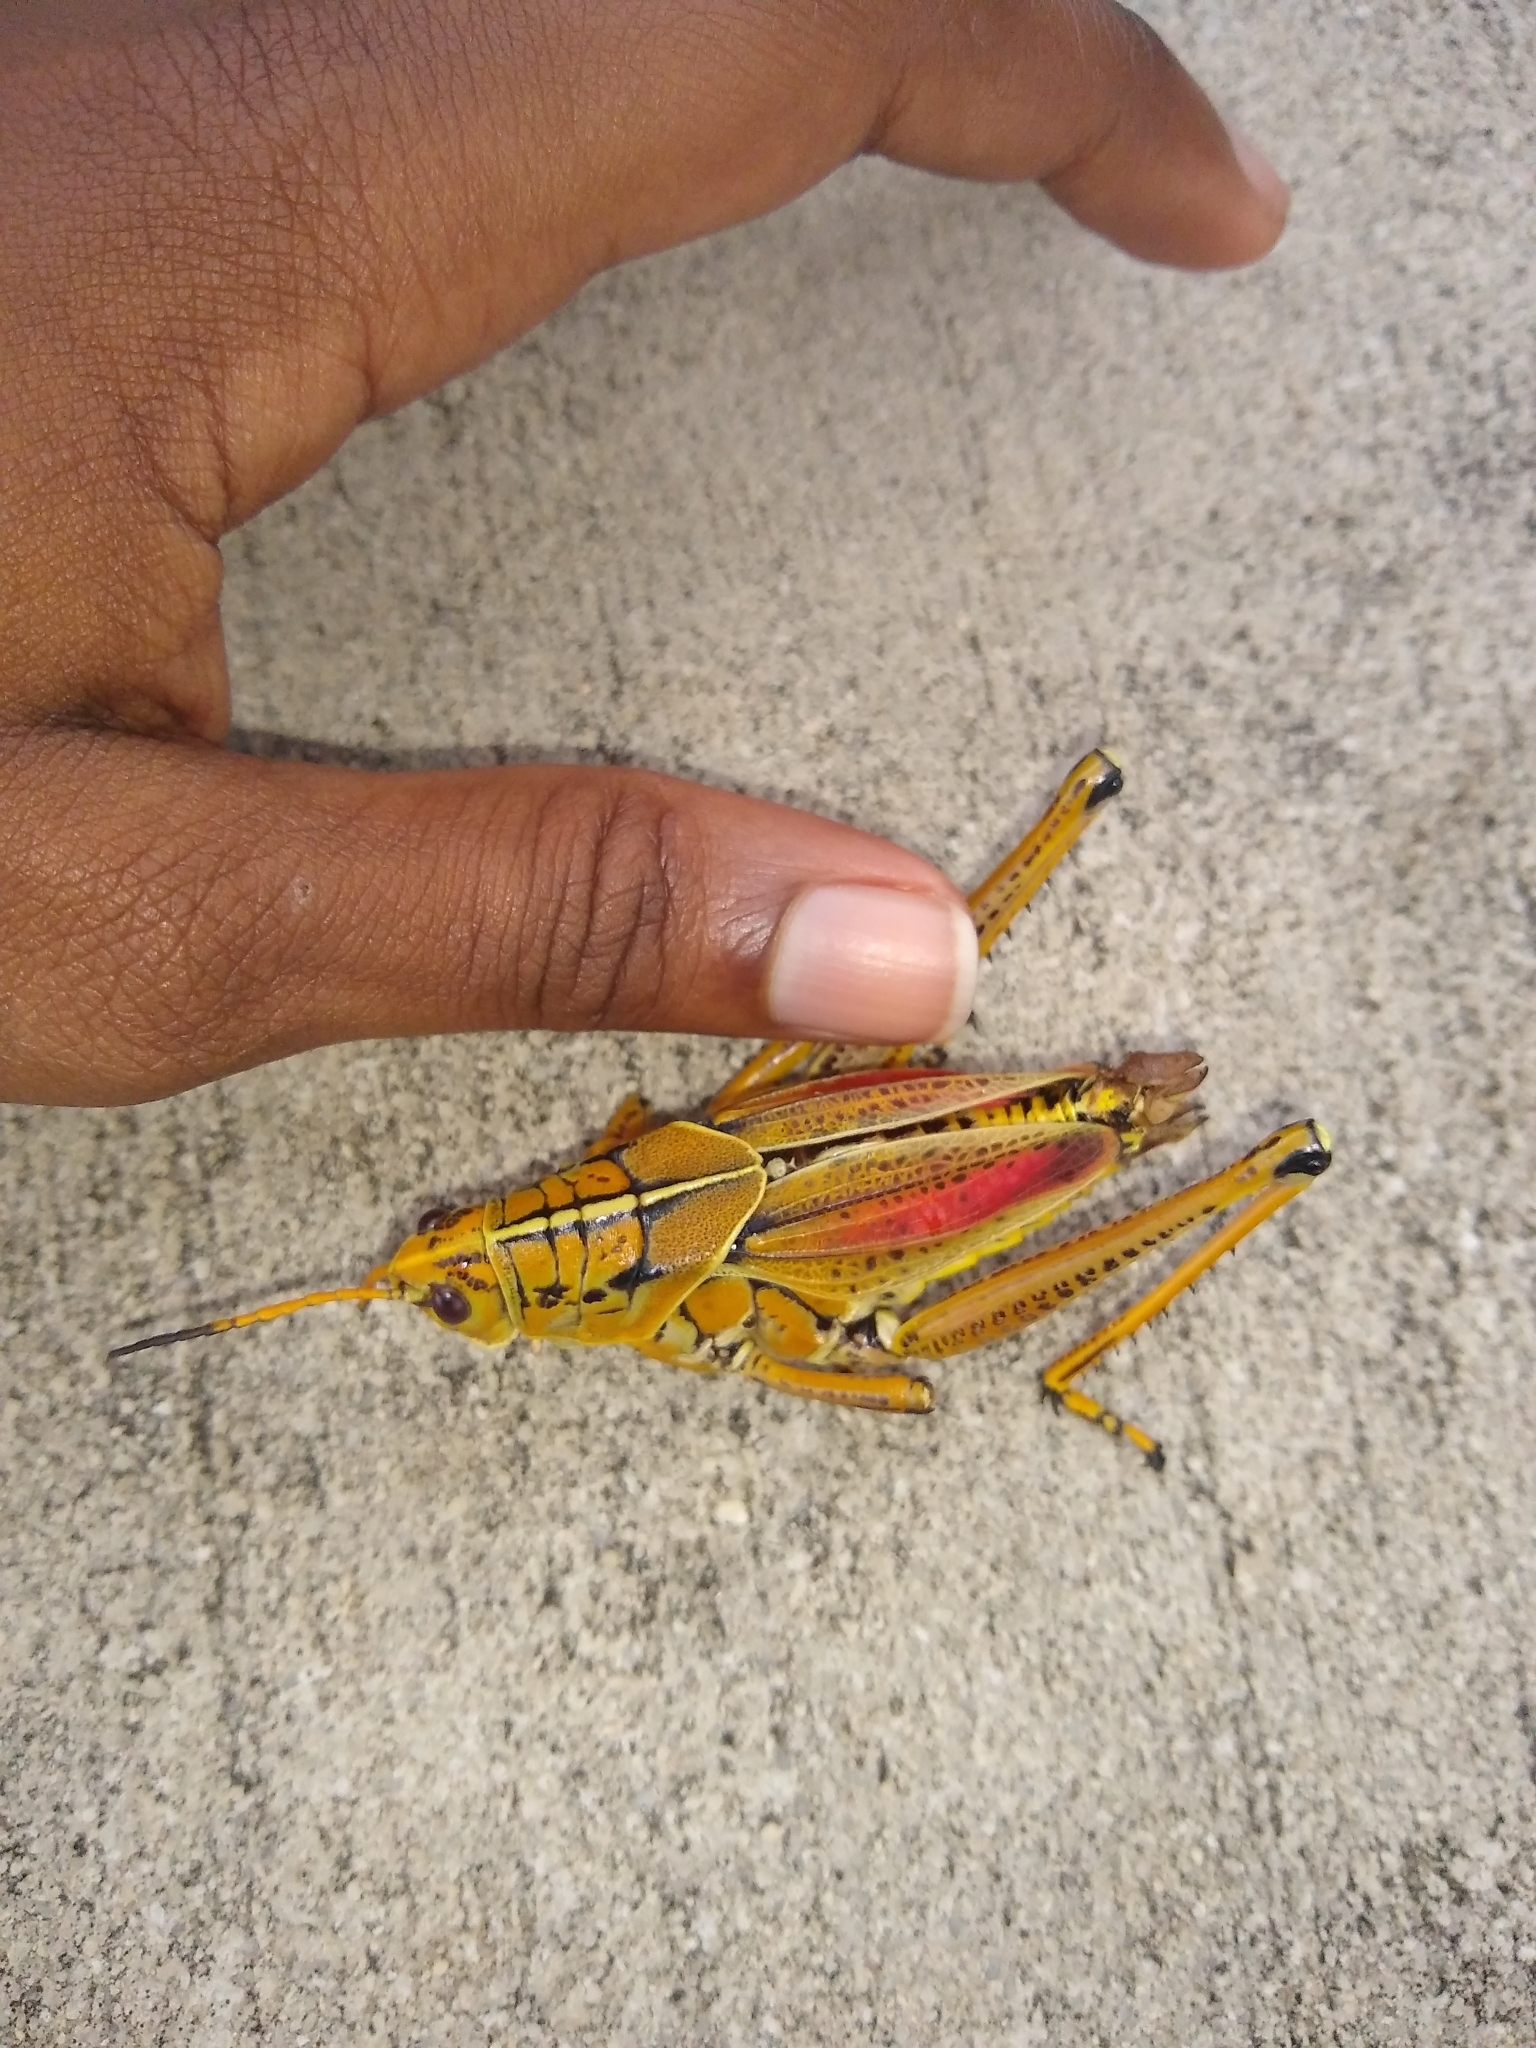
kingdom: Animalia
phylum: Arthropoda
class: Insecta
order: Orthoptera
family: Romaleidae
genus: Romalea
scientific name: Romalea microptera
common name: Eastern lubber grasshopper
